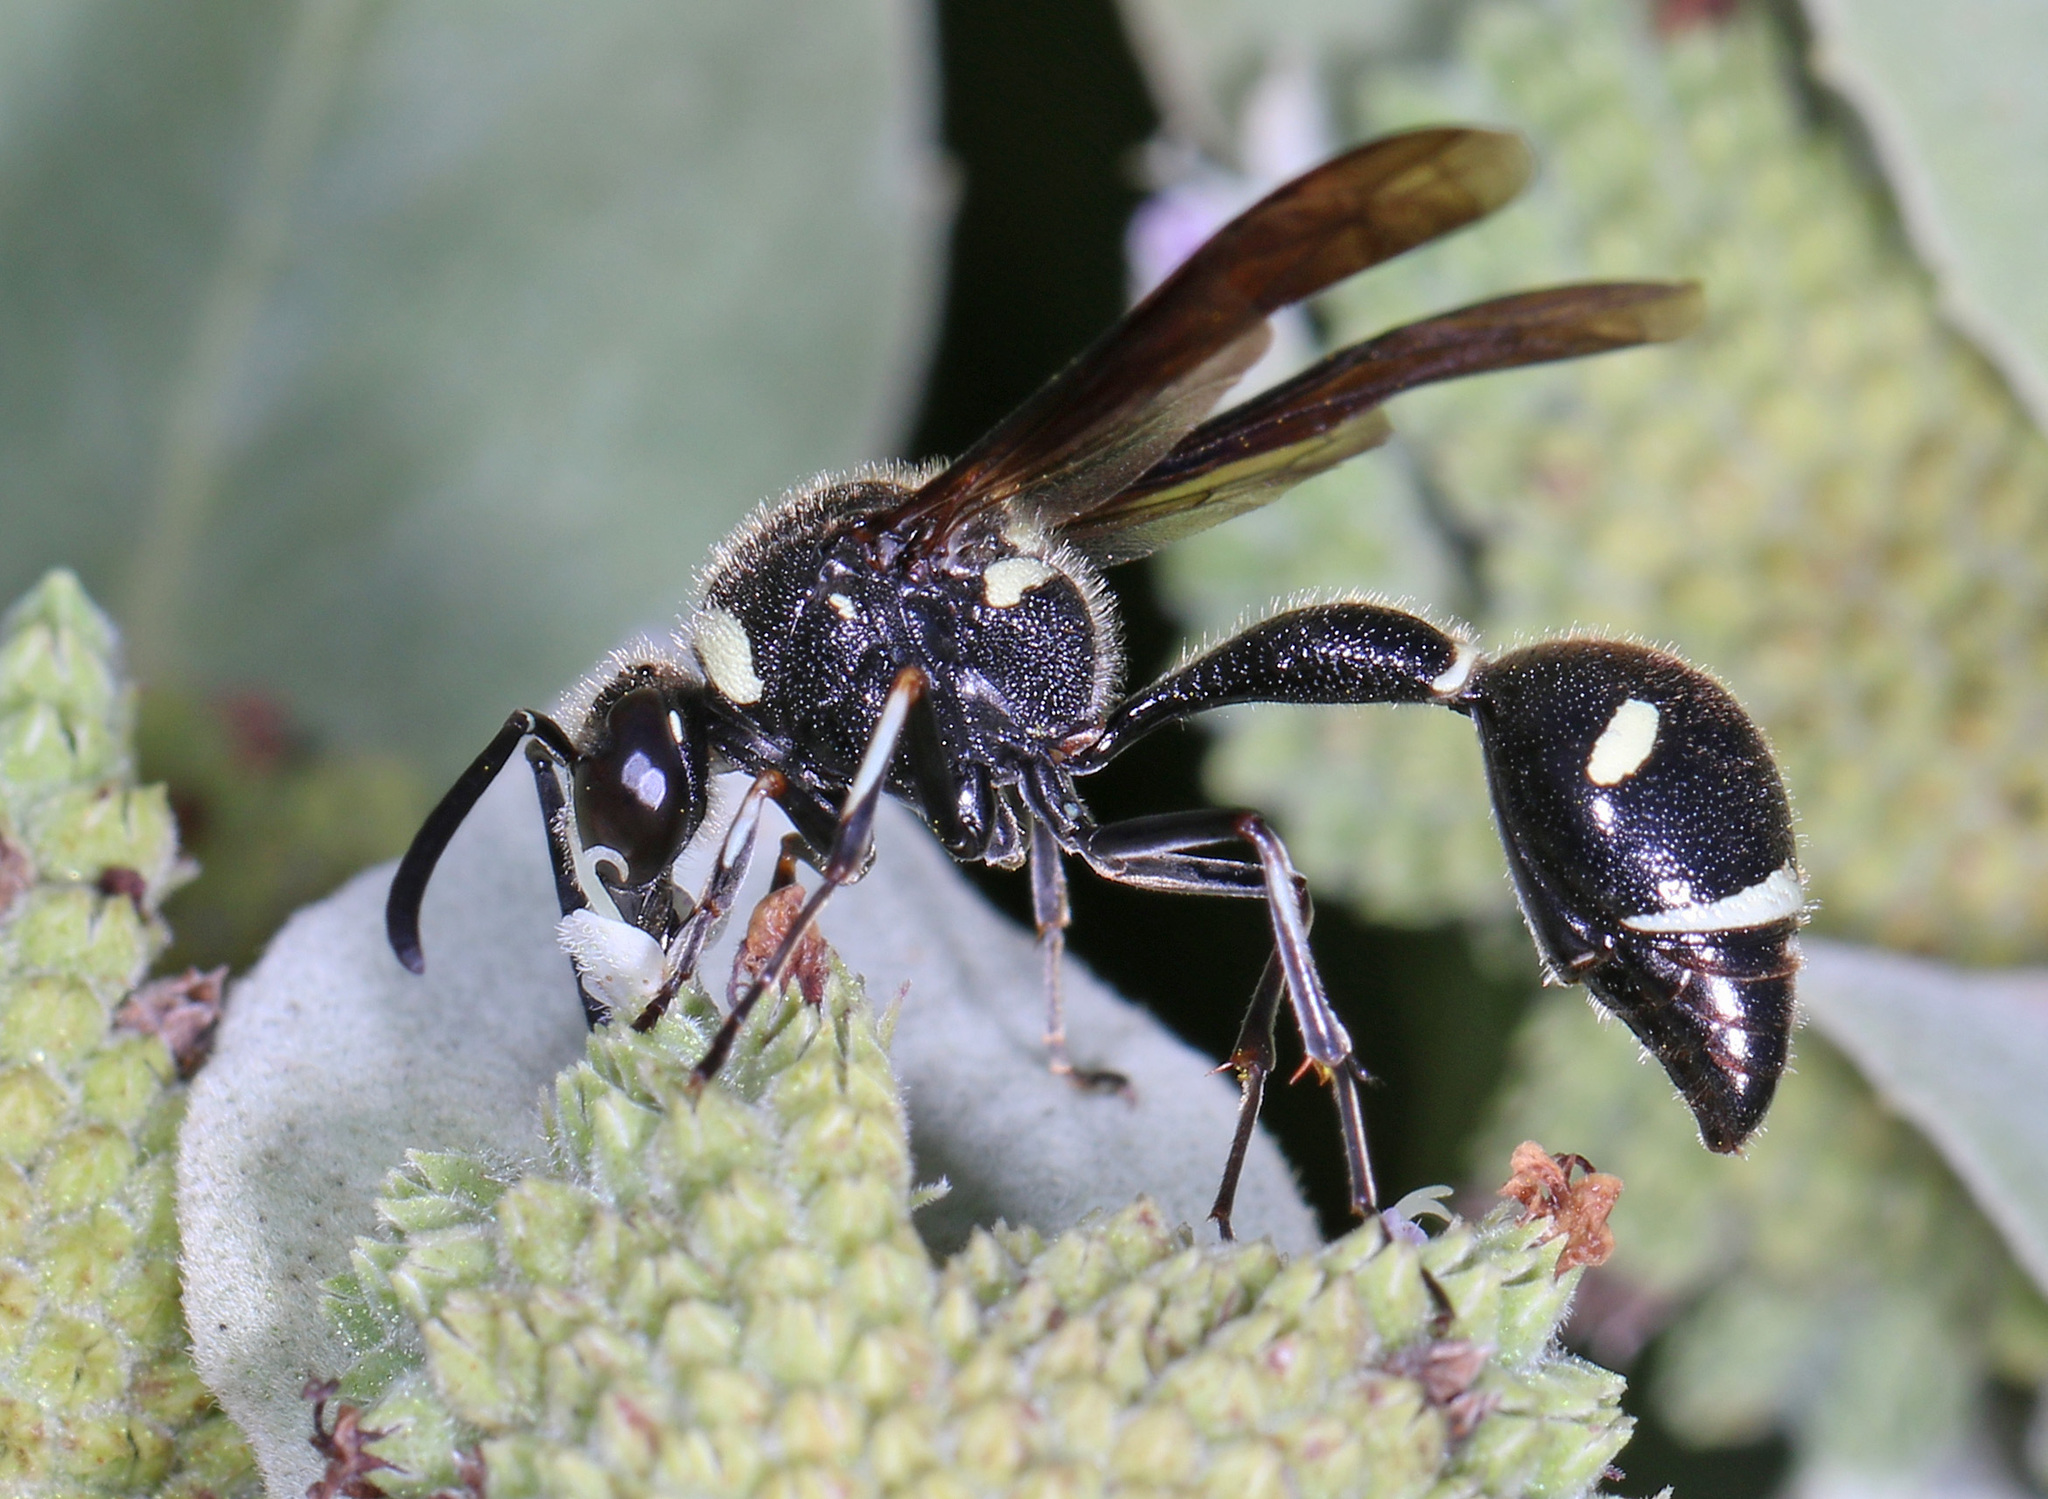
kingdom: Animalia
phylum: Arthropoda
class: Insecta
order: Hymenoptera
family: Vespidae
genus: Eumenes
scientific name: Eumenes fraternus
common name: Fraternal potter wasp
